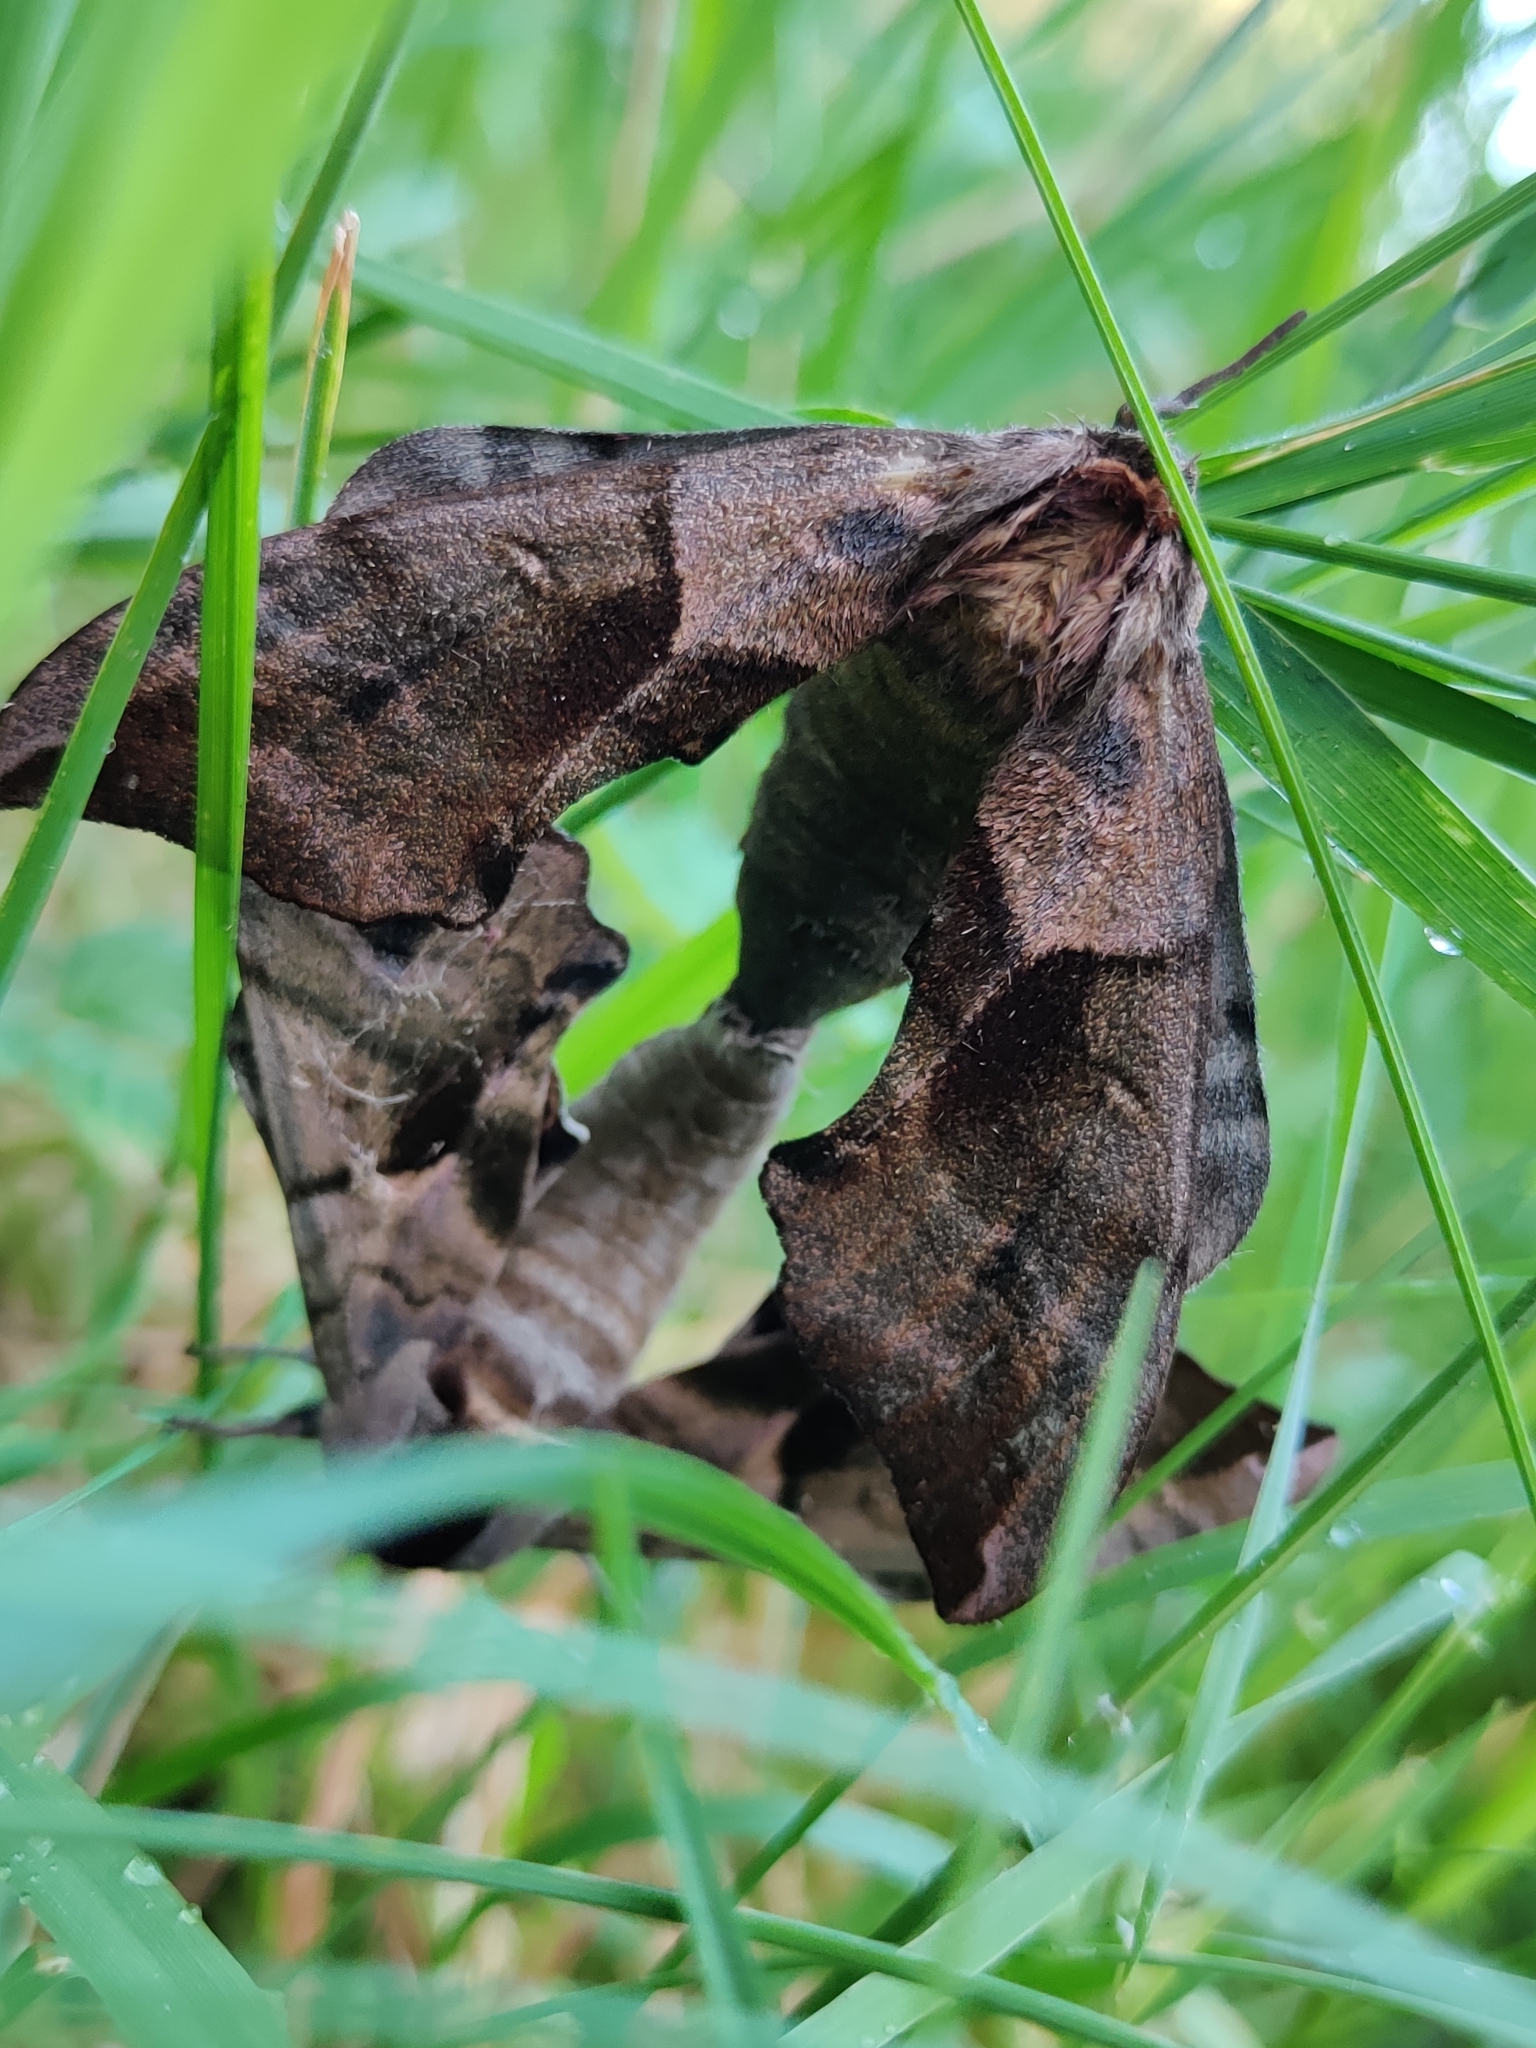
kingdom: Animalia
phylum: Arthropoda
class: Insecta
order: Lepidoptera
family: Sphingidae
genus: Smerinthus
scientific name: Smerinthus ocellata
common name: Eyed hawk-moth
